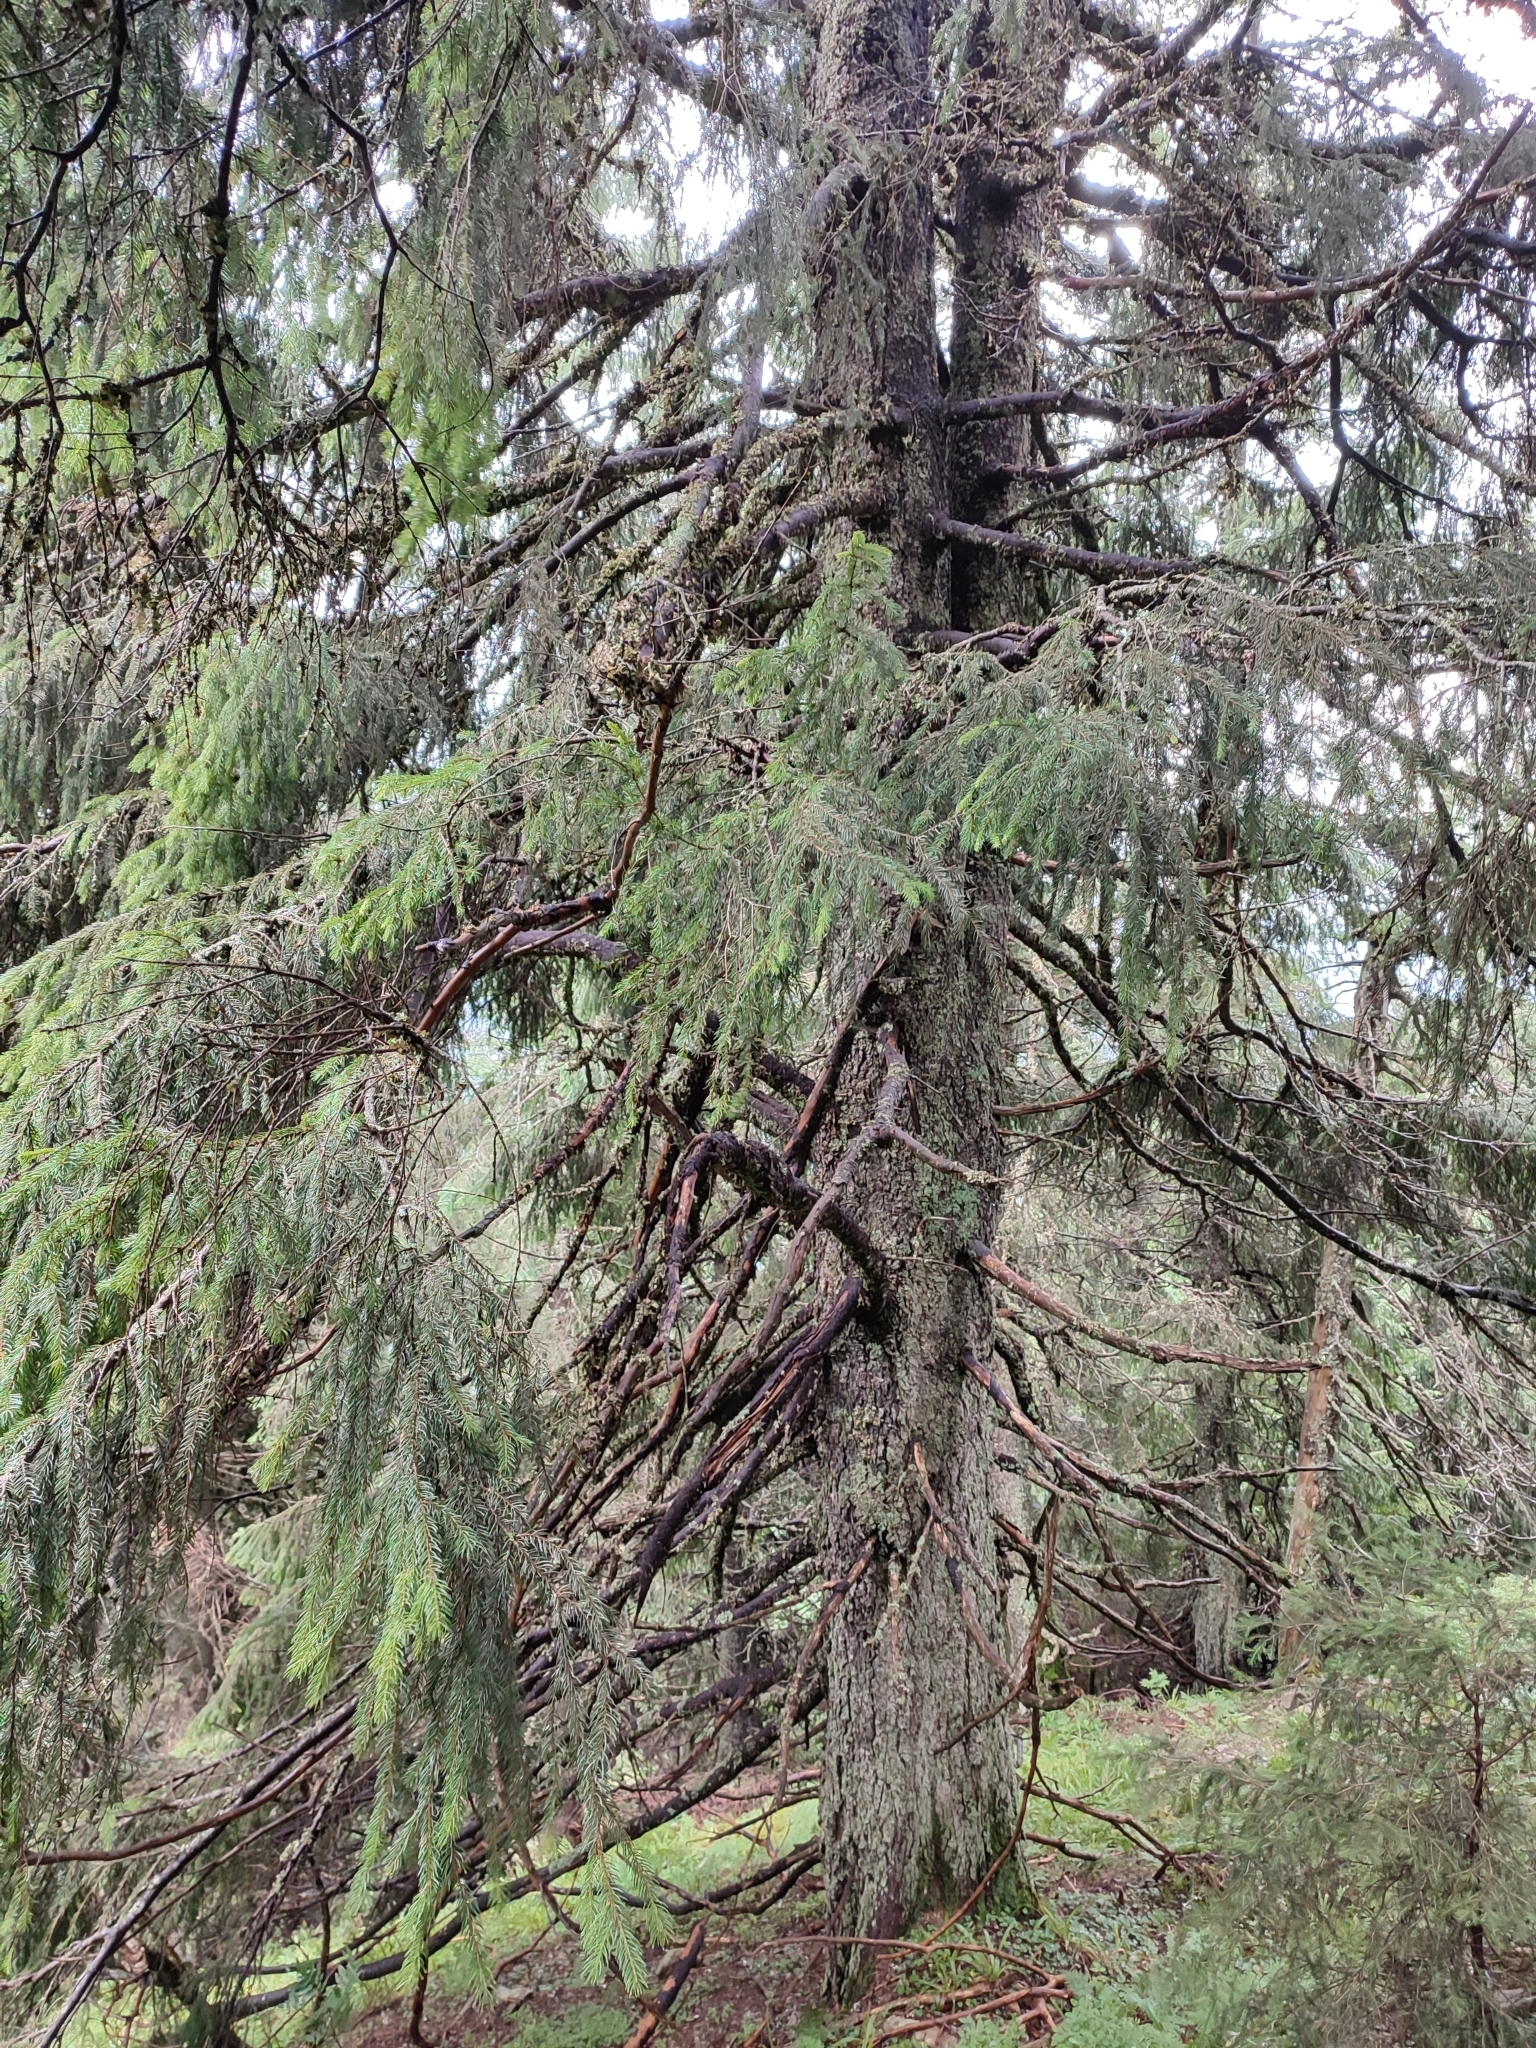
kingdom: Plantae
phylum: Tracheophyta
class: Pinopsida
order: Pinales
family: Pinaceae
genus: Picea
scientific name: Picea abies
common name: Norway spruce
